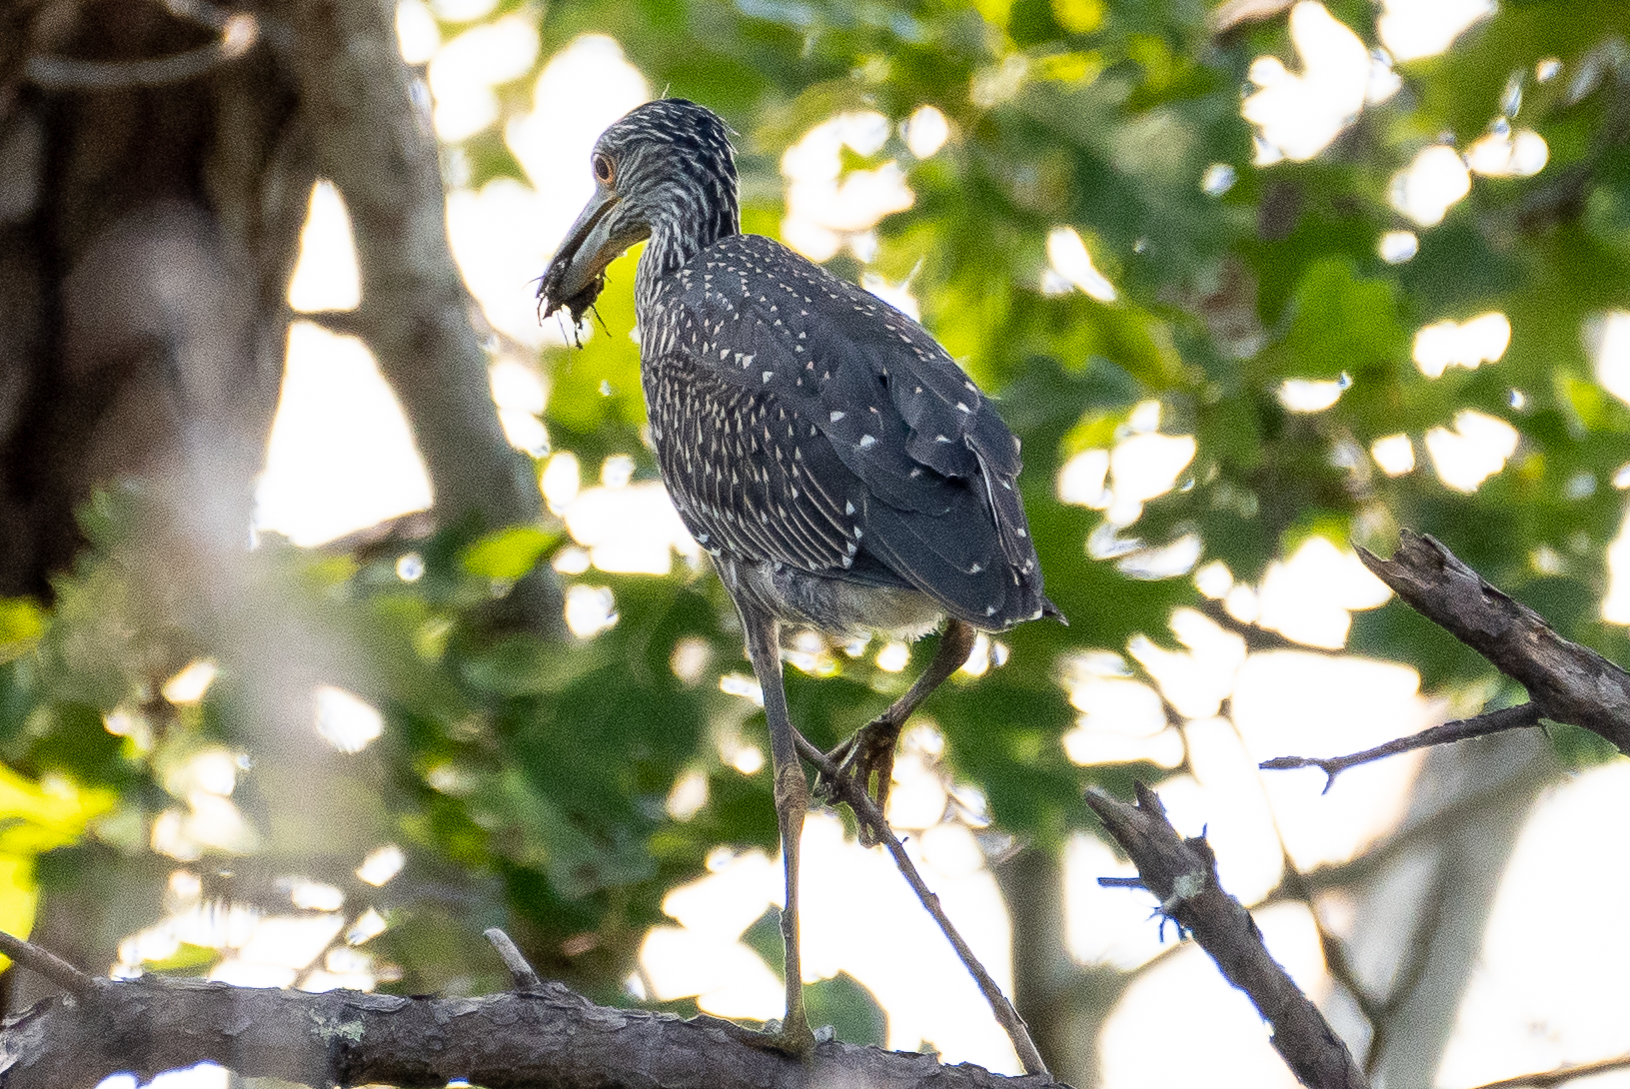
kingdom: Animalia
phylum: Chordata
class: Aves
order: Pelecaniformes
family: Ardeidae
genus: Nyctanassa
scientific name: Nyctanassa violacea
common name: Yellow-crowned night heron
